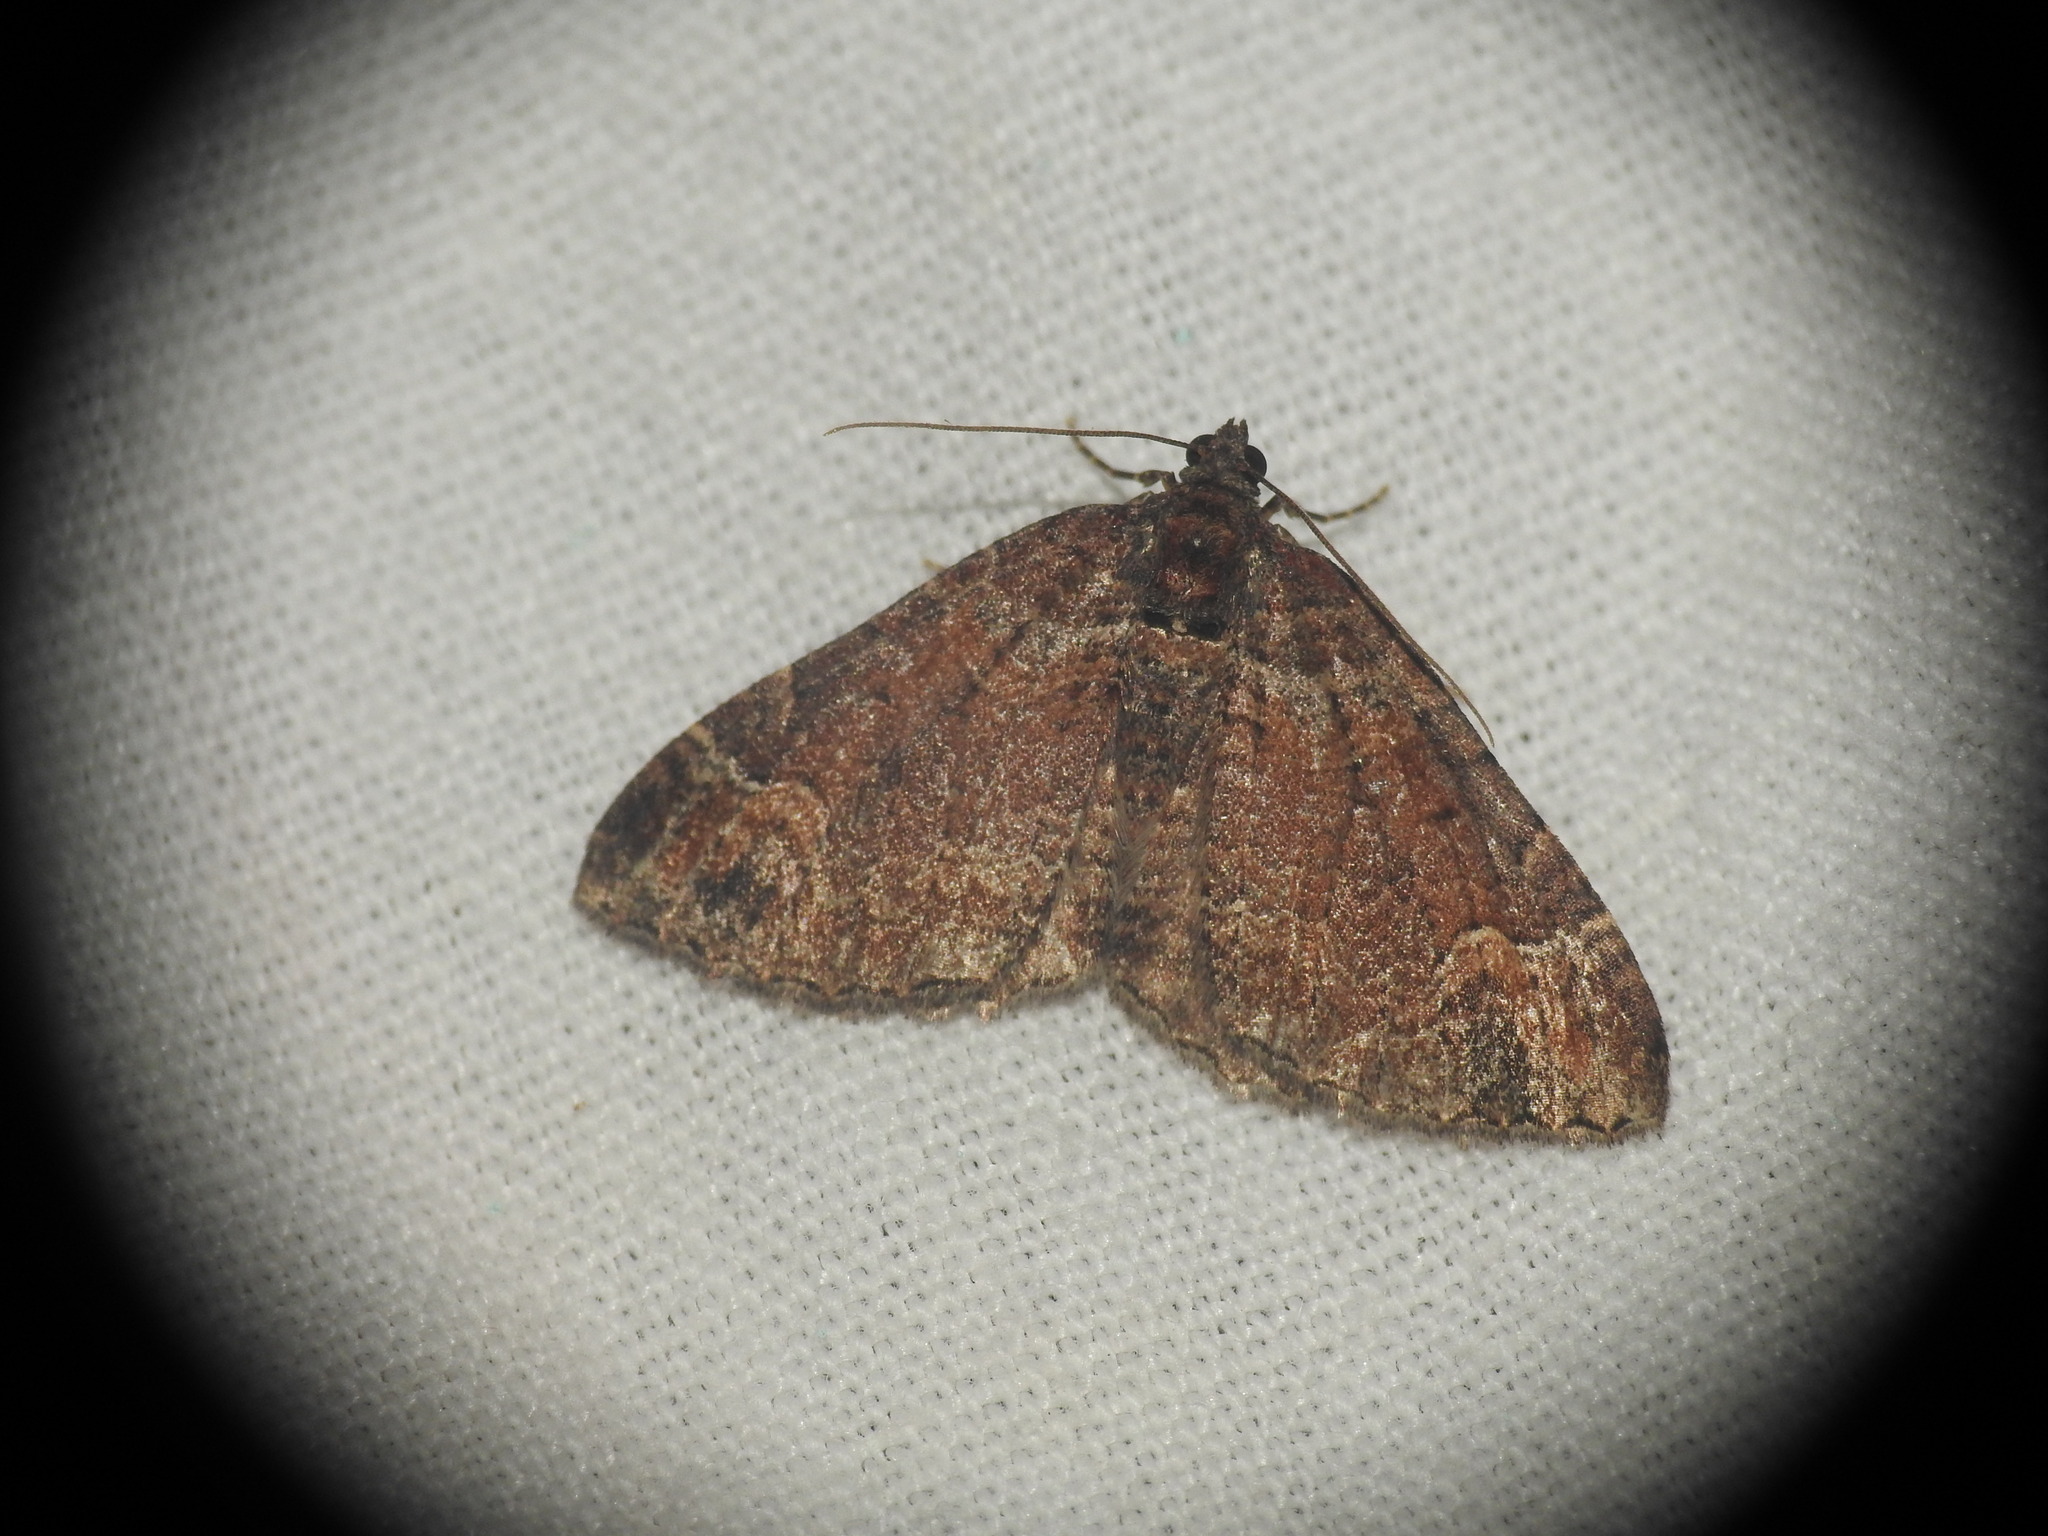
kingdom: Animalia
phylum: Arthropoda
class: Insecta
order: Lepidoptera
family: Geometridae
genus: Catarhoe
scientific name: Catarhoe basochesiata
